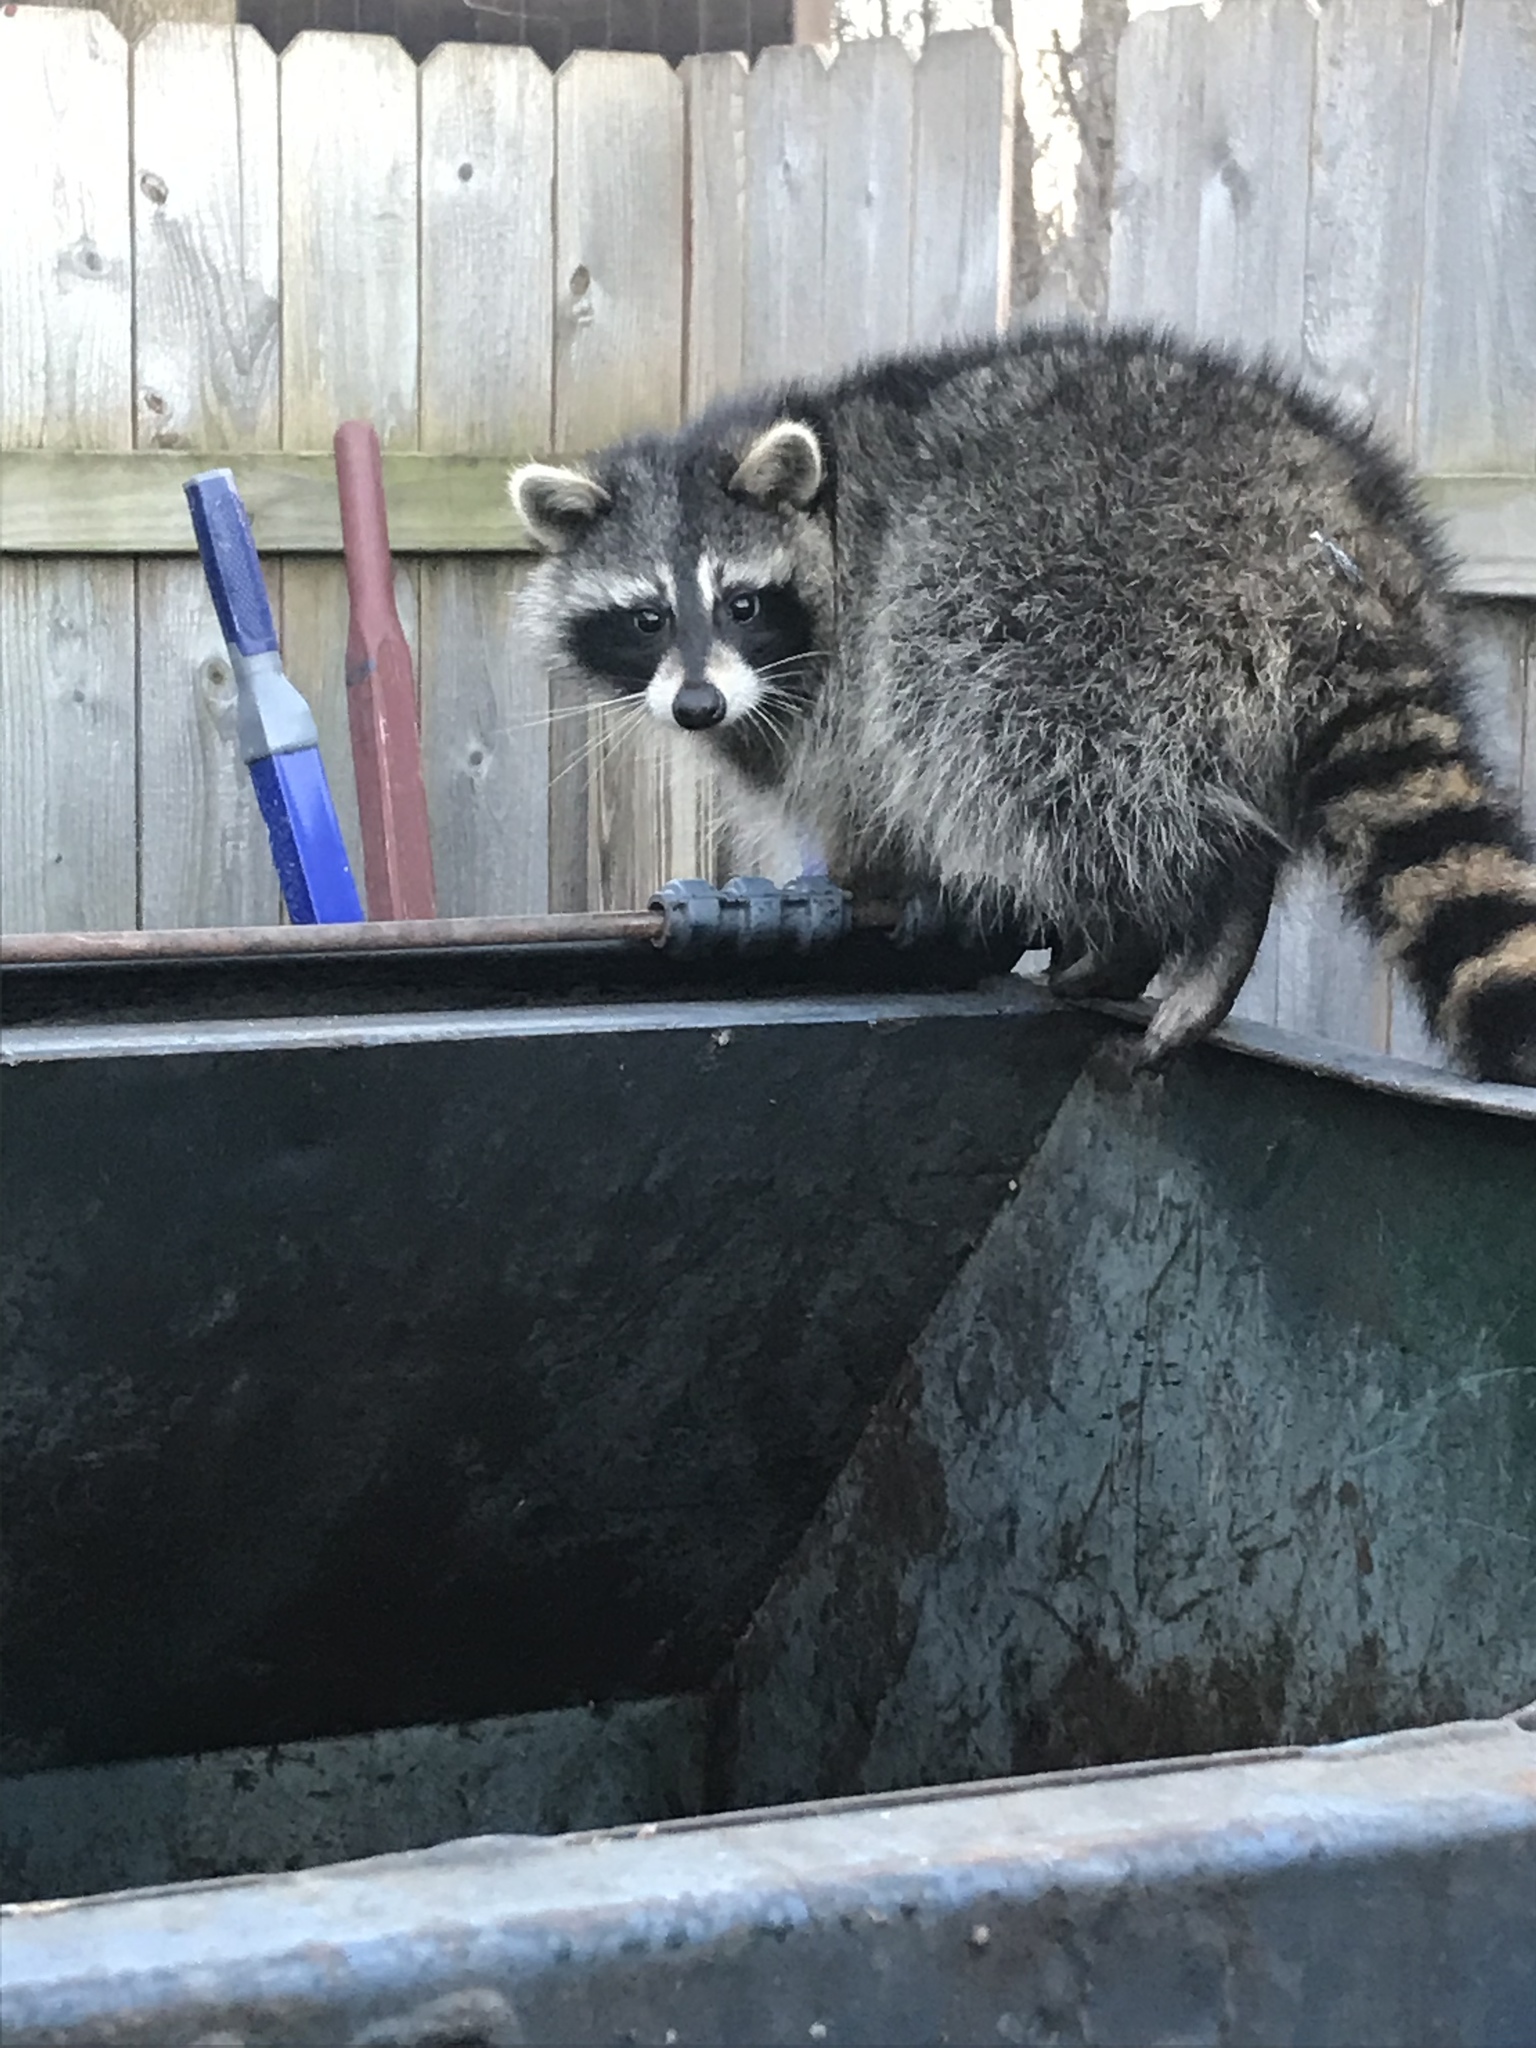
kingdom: Animalia
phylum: Chordata
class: Mammalia
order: Carnivora
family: Procyonidae
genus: Procyon
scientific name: Procyon lotor
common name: Raccoon
